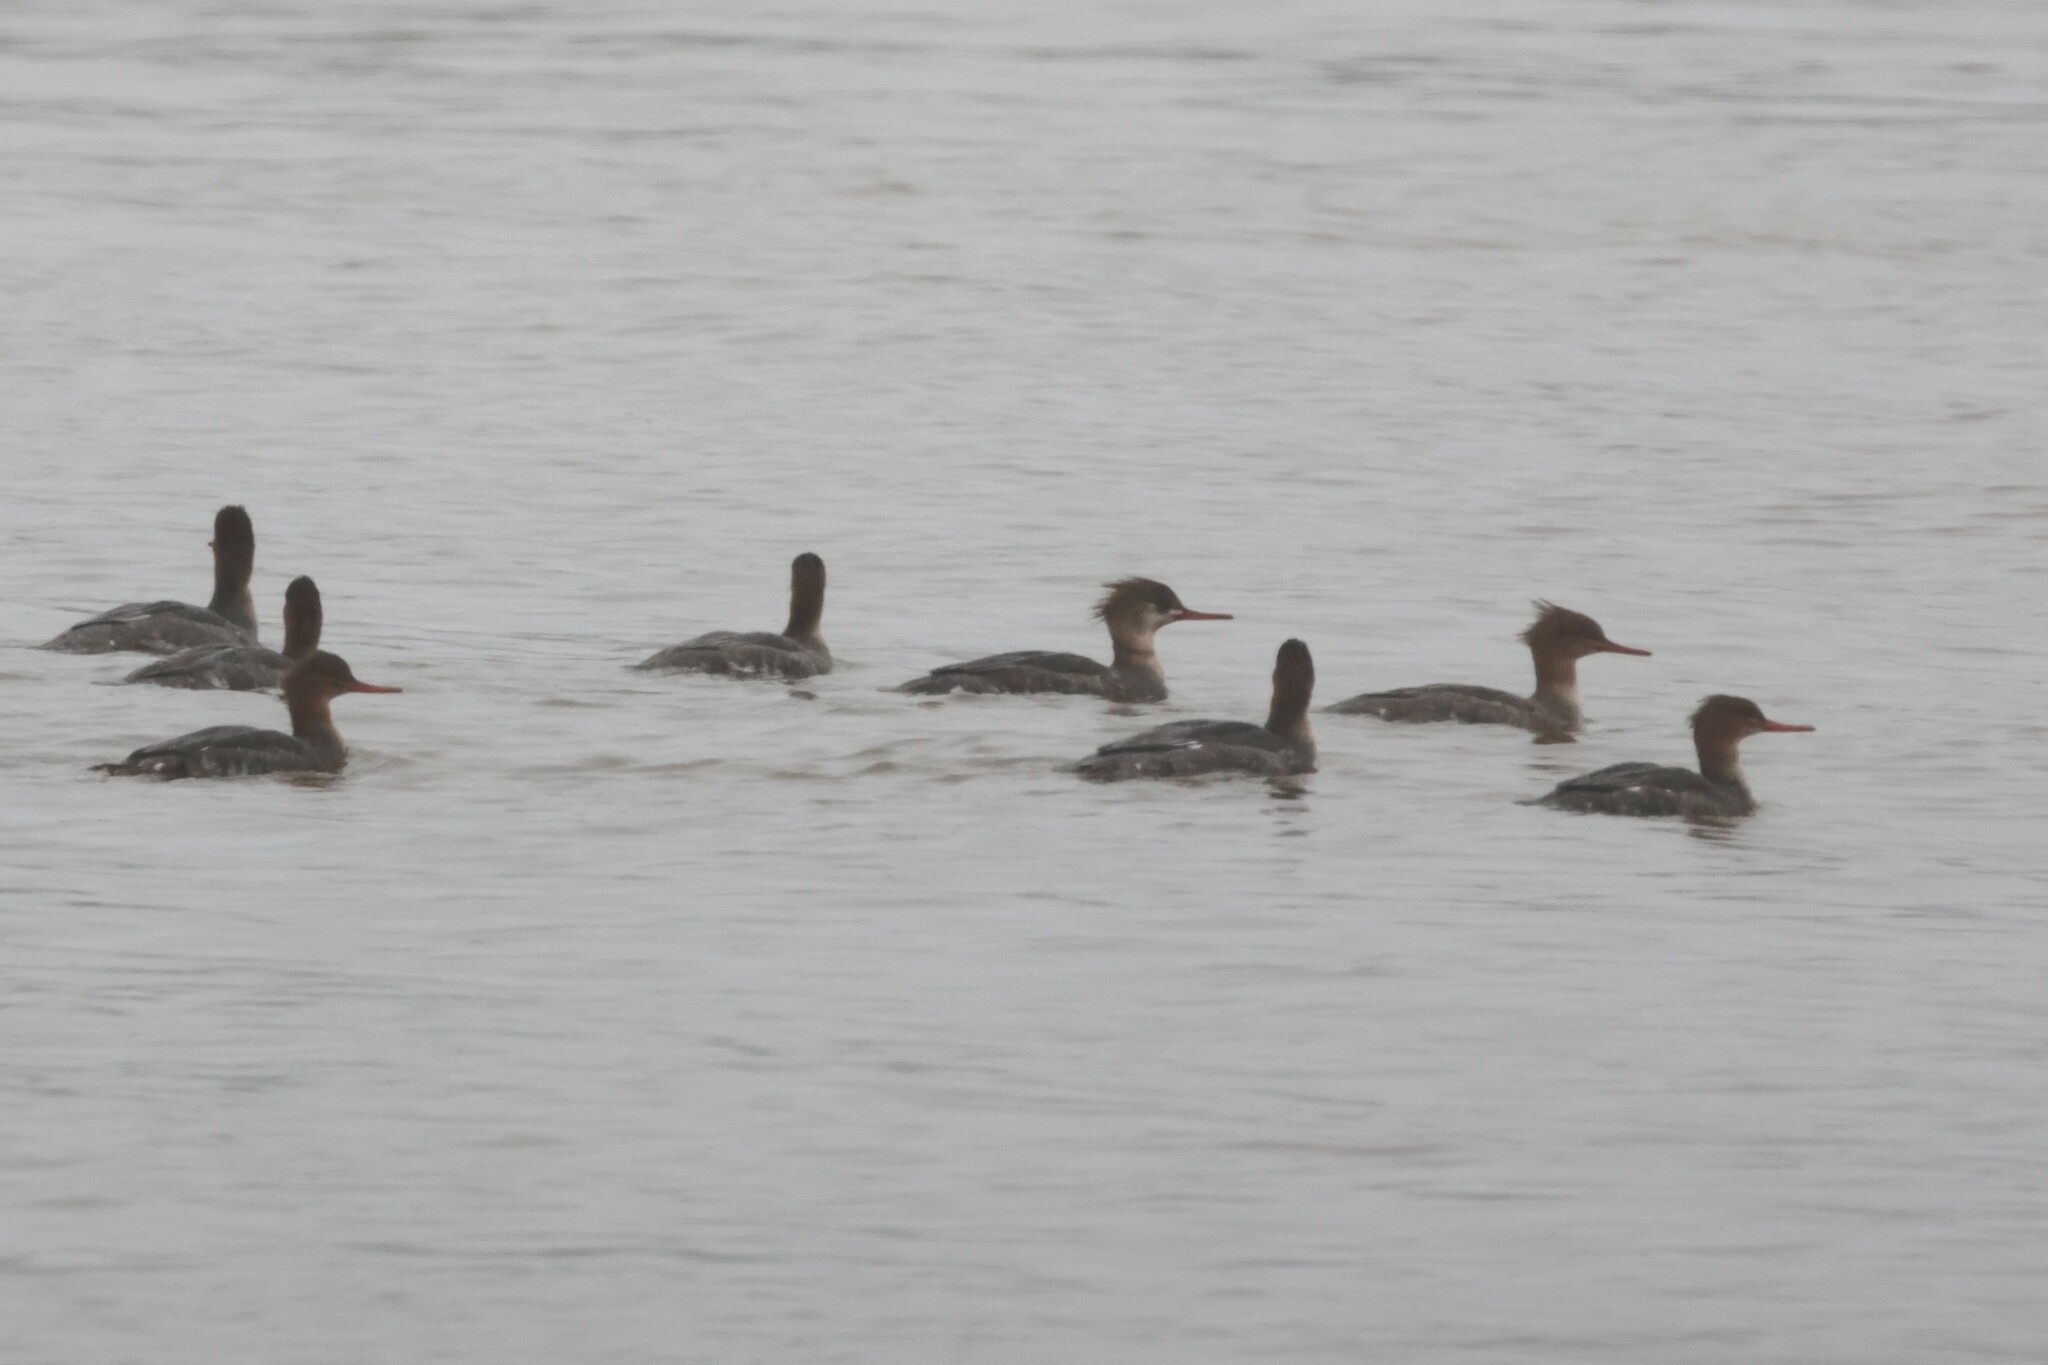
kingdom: Animalia
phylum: Chordata
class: Aves
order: Anseriformes
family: Anatidae
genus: Mergus
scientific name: Mergus serrator
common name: Red-breasted merganser
